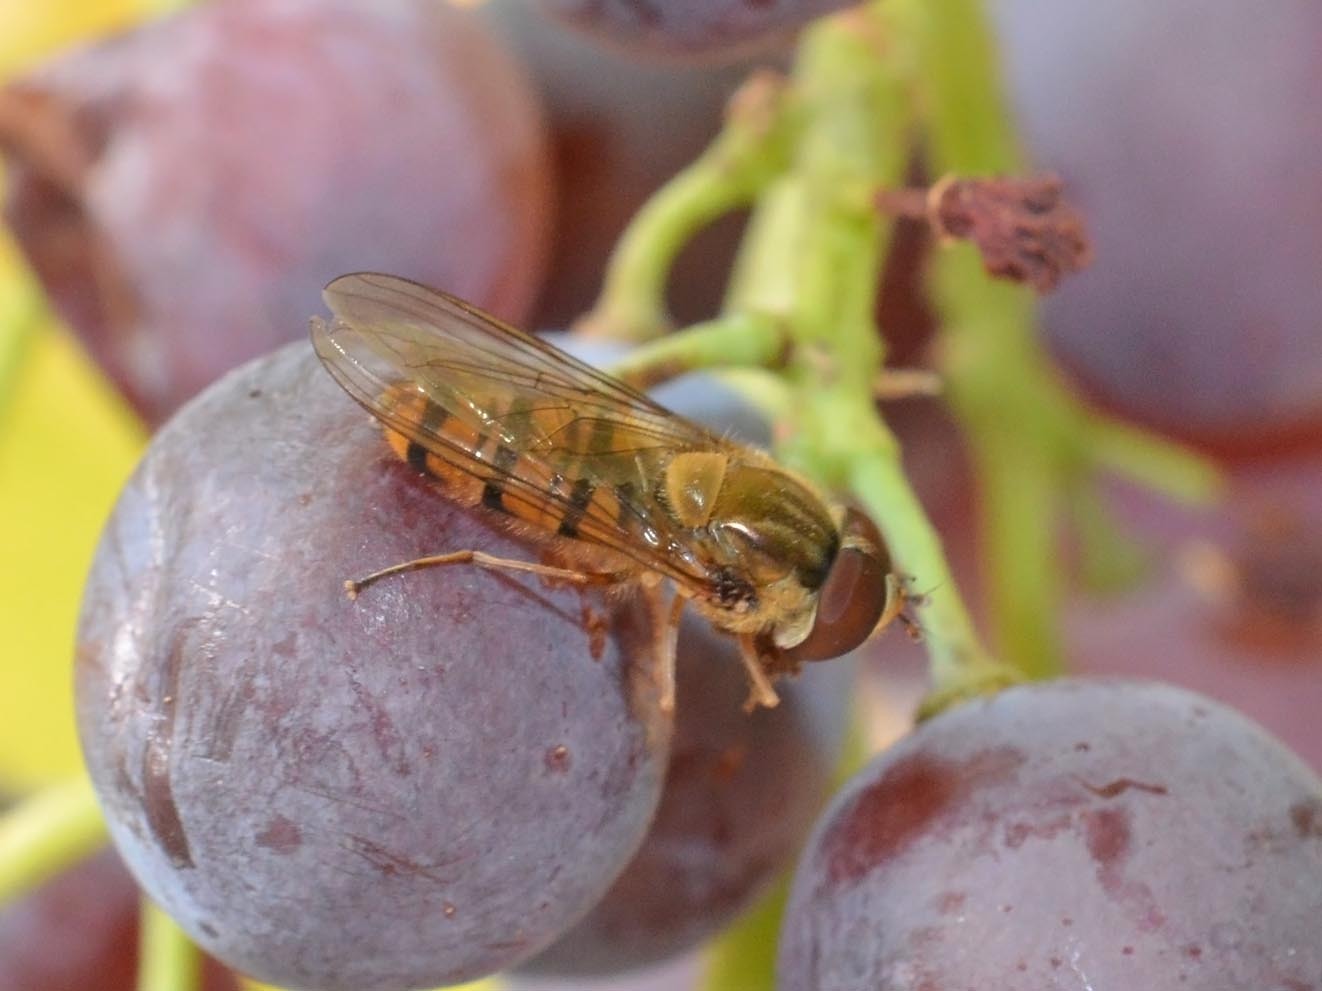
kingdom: Animalia
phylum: Arthropoda
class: Insecta
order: Diptera
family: Syrphidae
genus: Episyrphus
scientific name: Episyrphus balteatus
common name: Marmalade hoverfly
